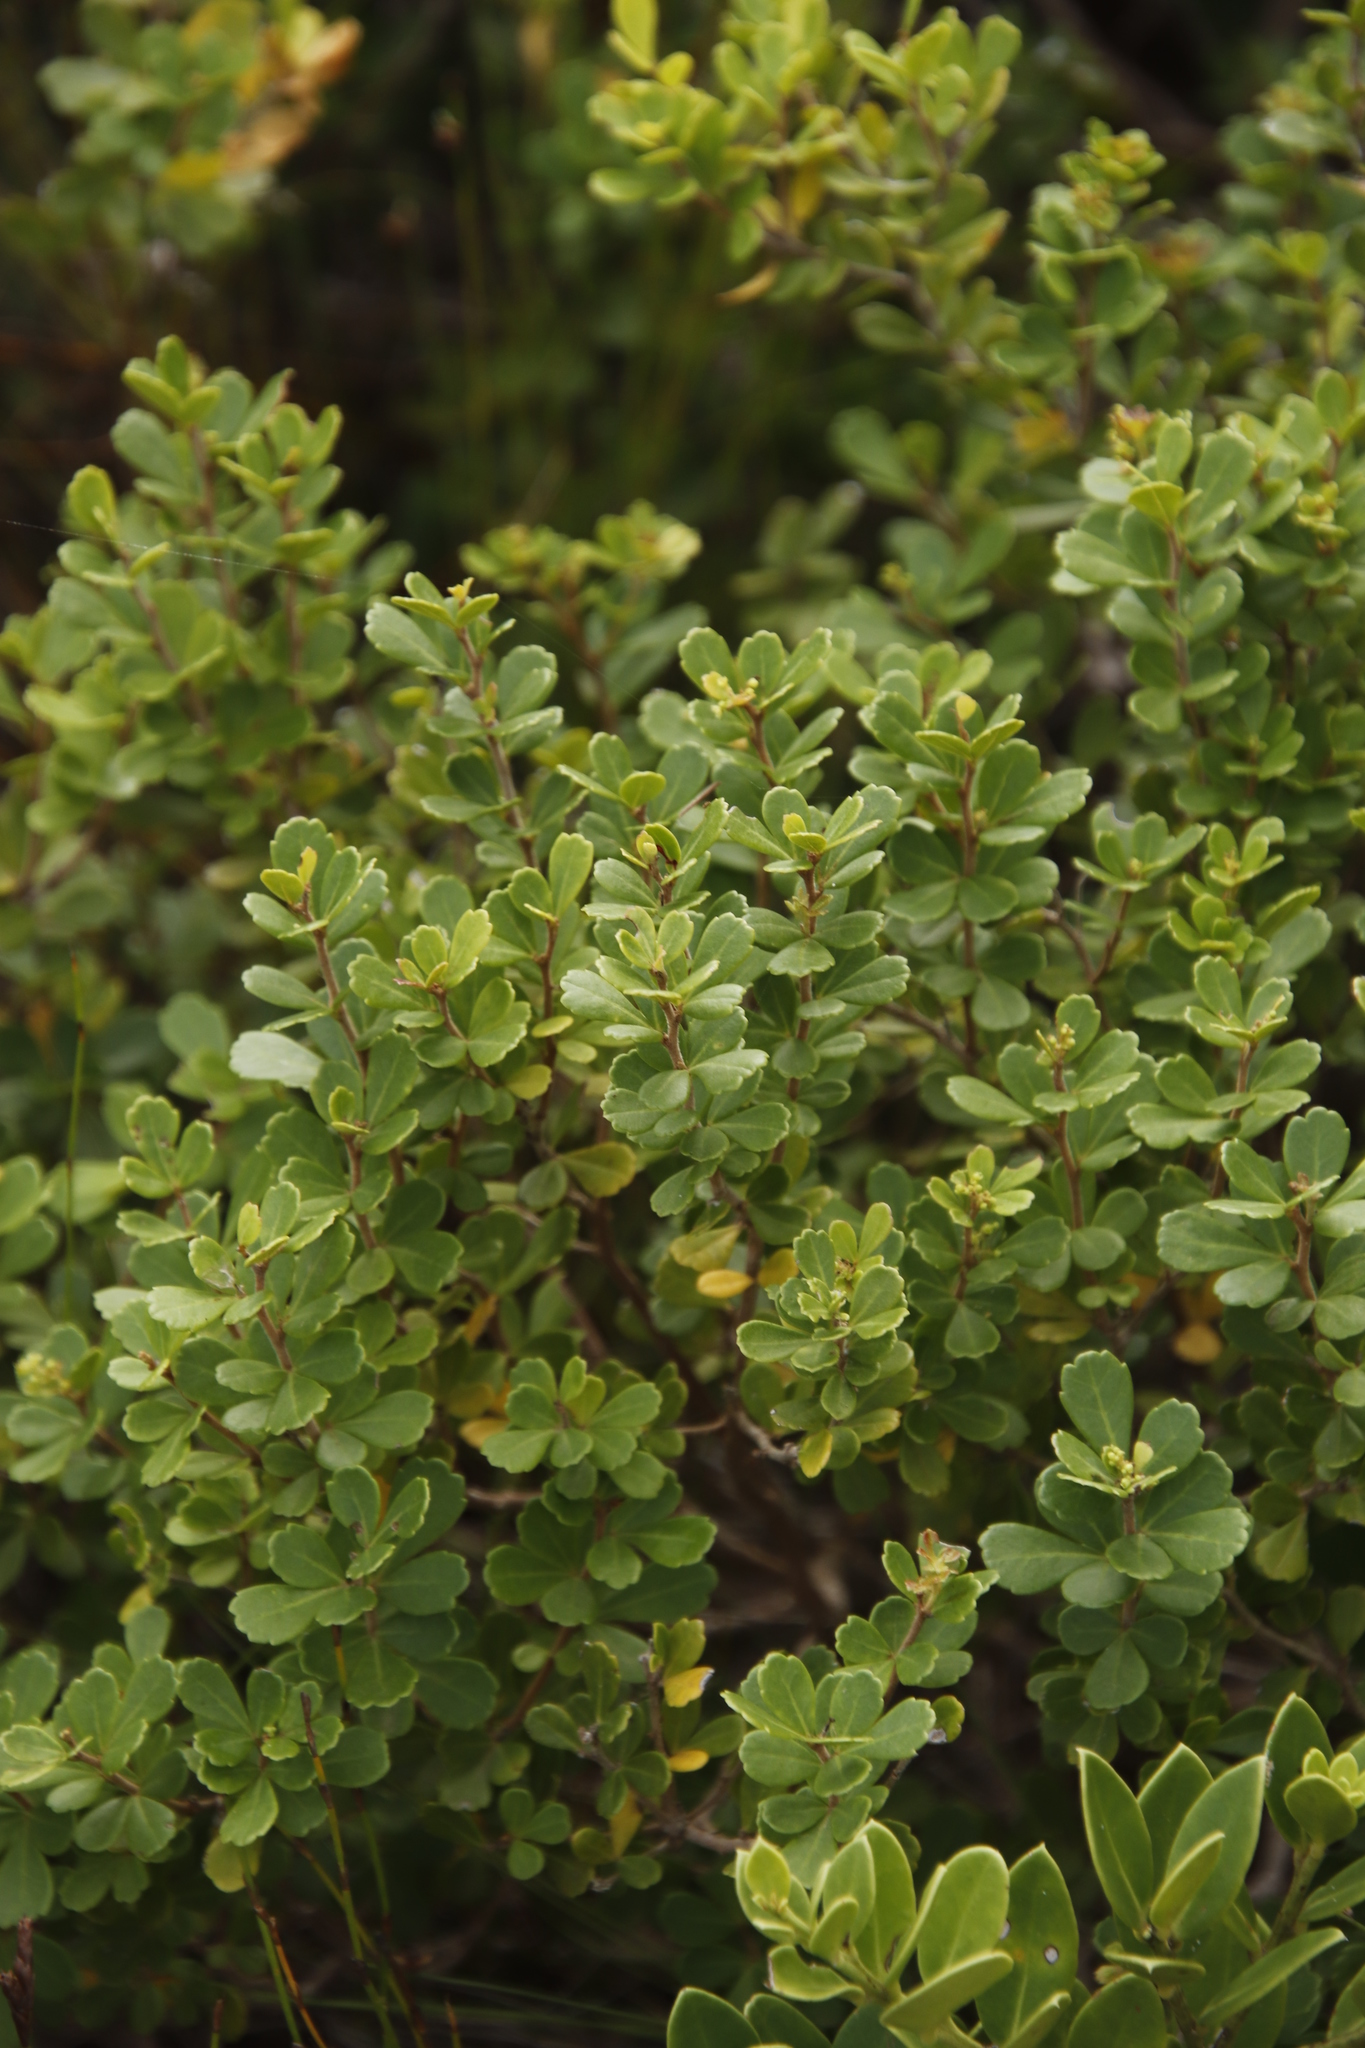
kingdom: Plantae
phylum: Tracheophyta
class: Magnoliopsida
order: Sapindales
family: Anacardiaceae
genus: Searsia
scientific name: Searsia crenata
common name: Crowberry
